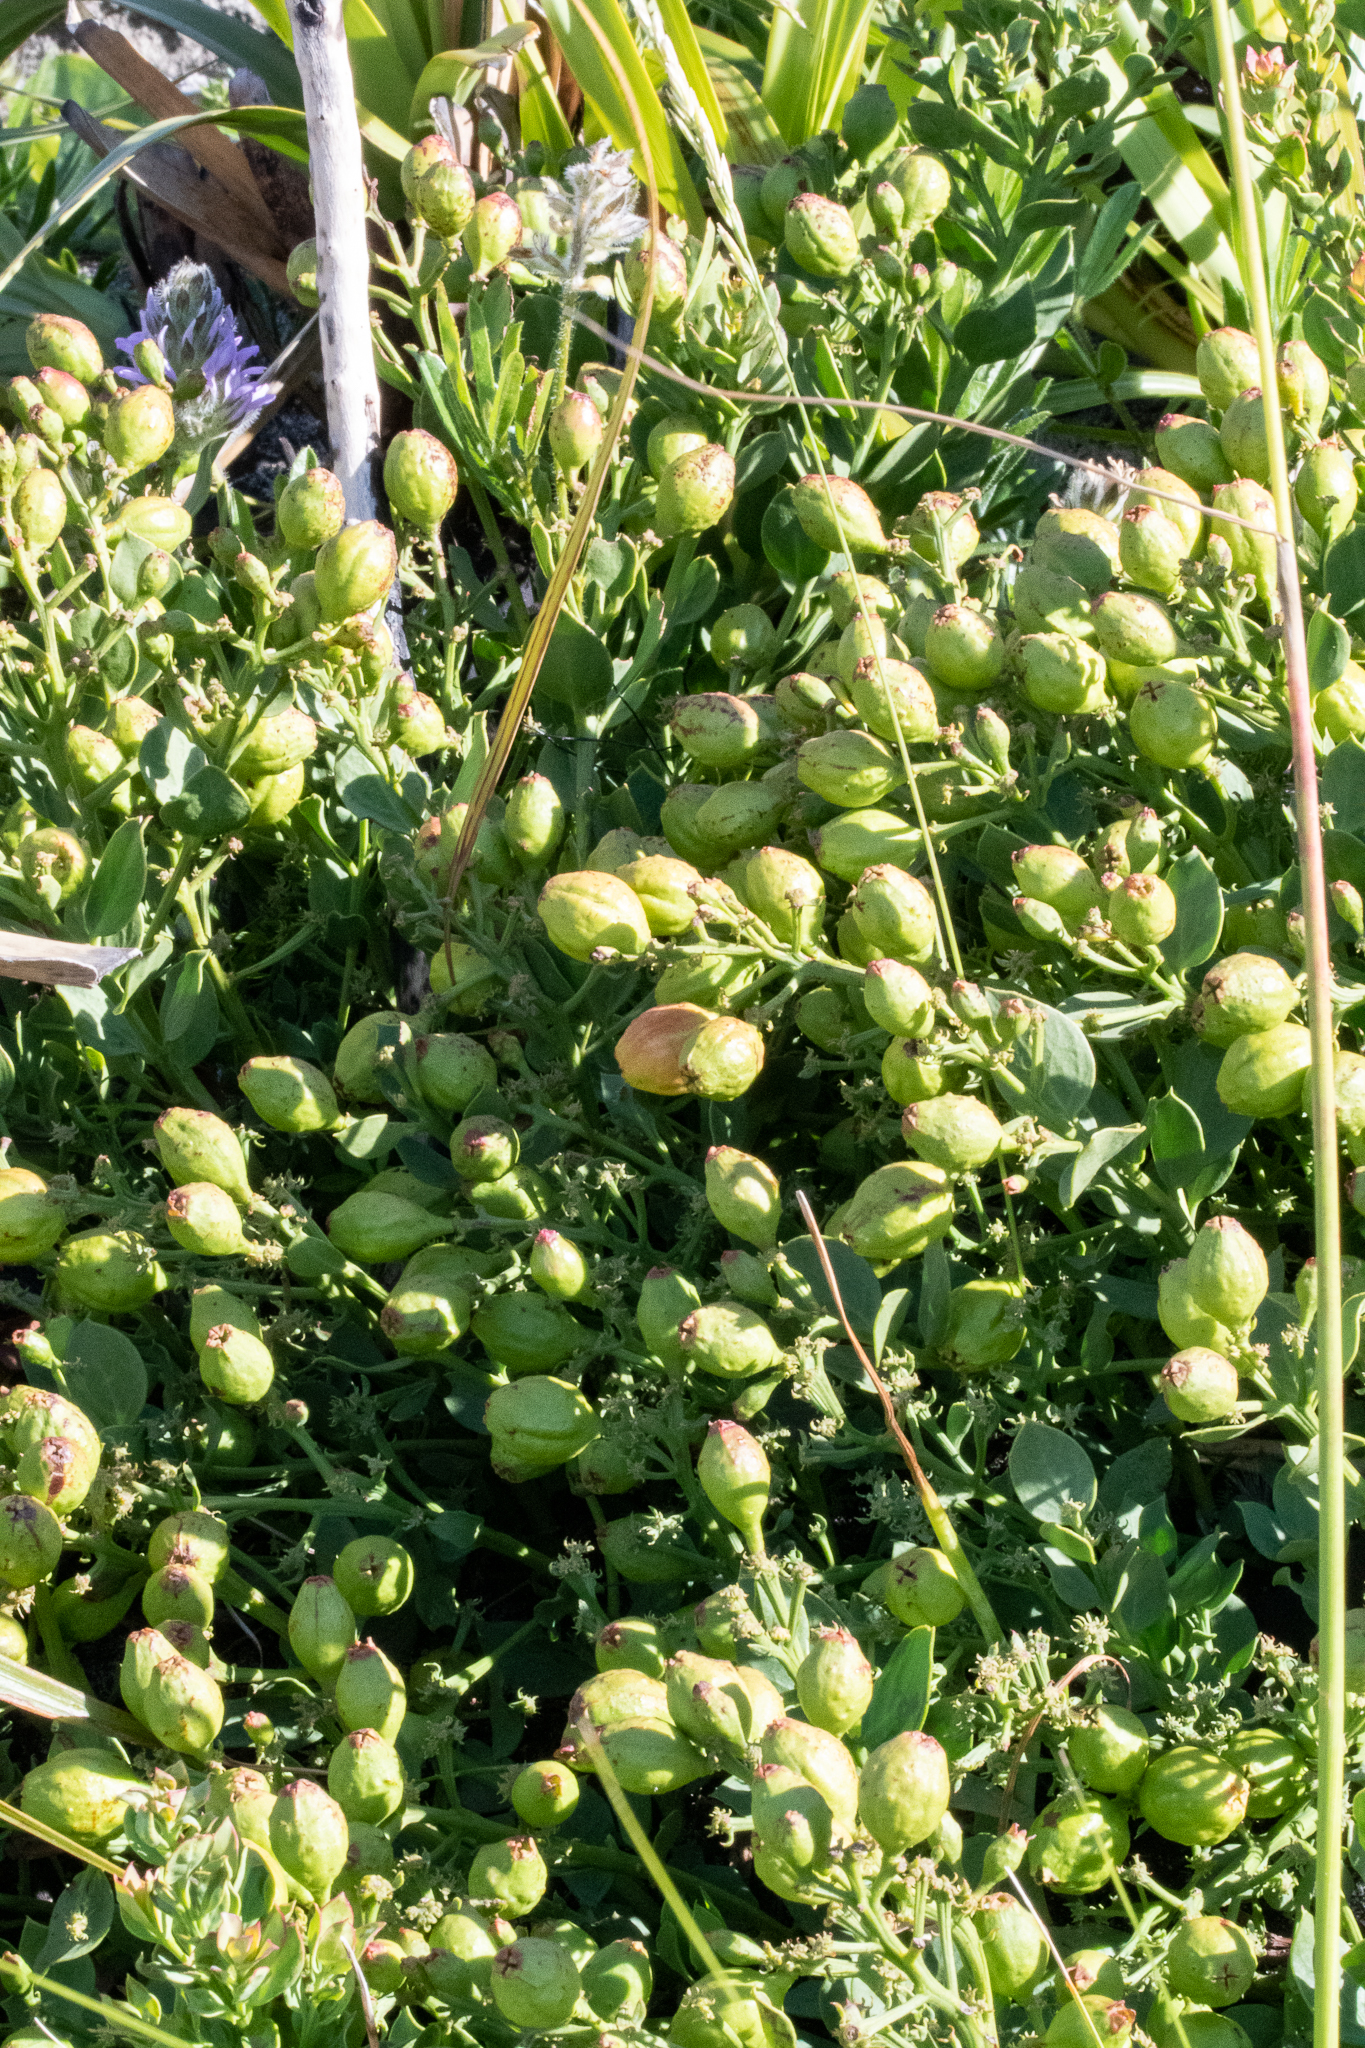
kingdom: Plantae
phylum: Tracheophyta
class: Magnoliopsida
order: Santalales
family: Santalaceae
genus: Osyris
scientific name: Osyris speciosa
